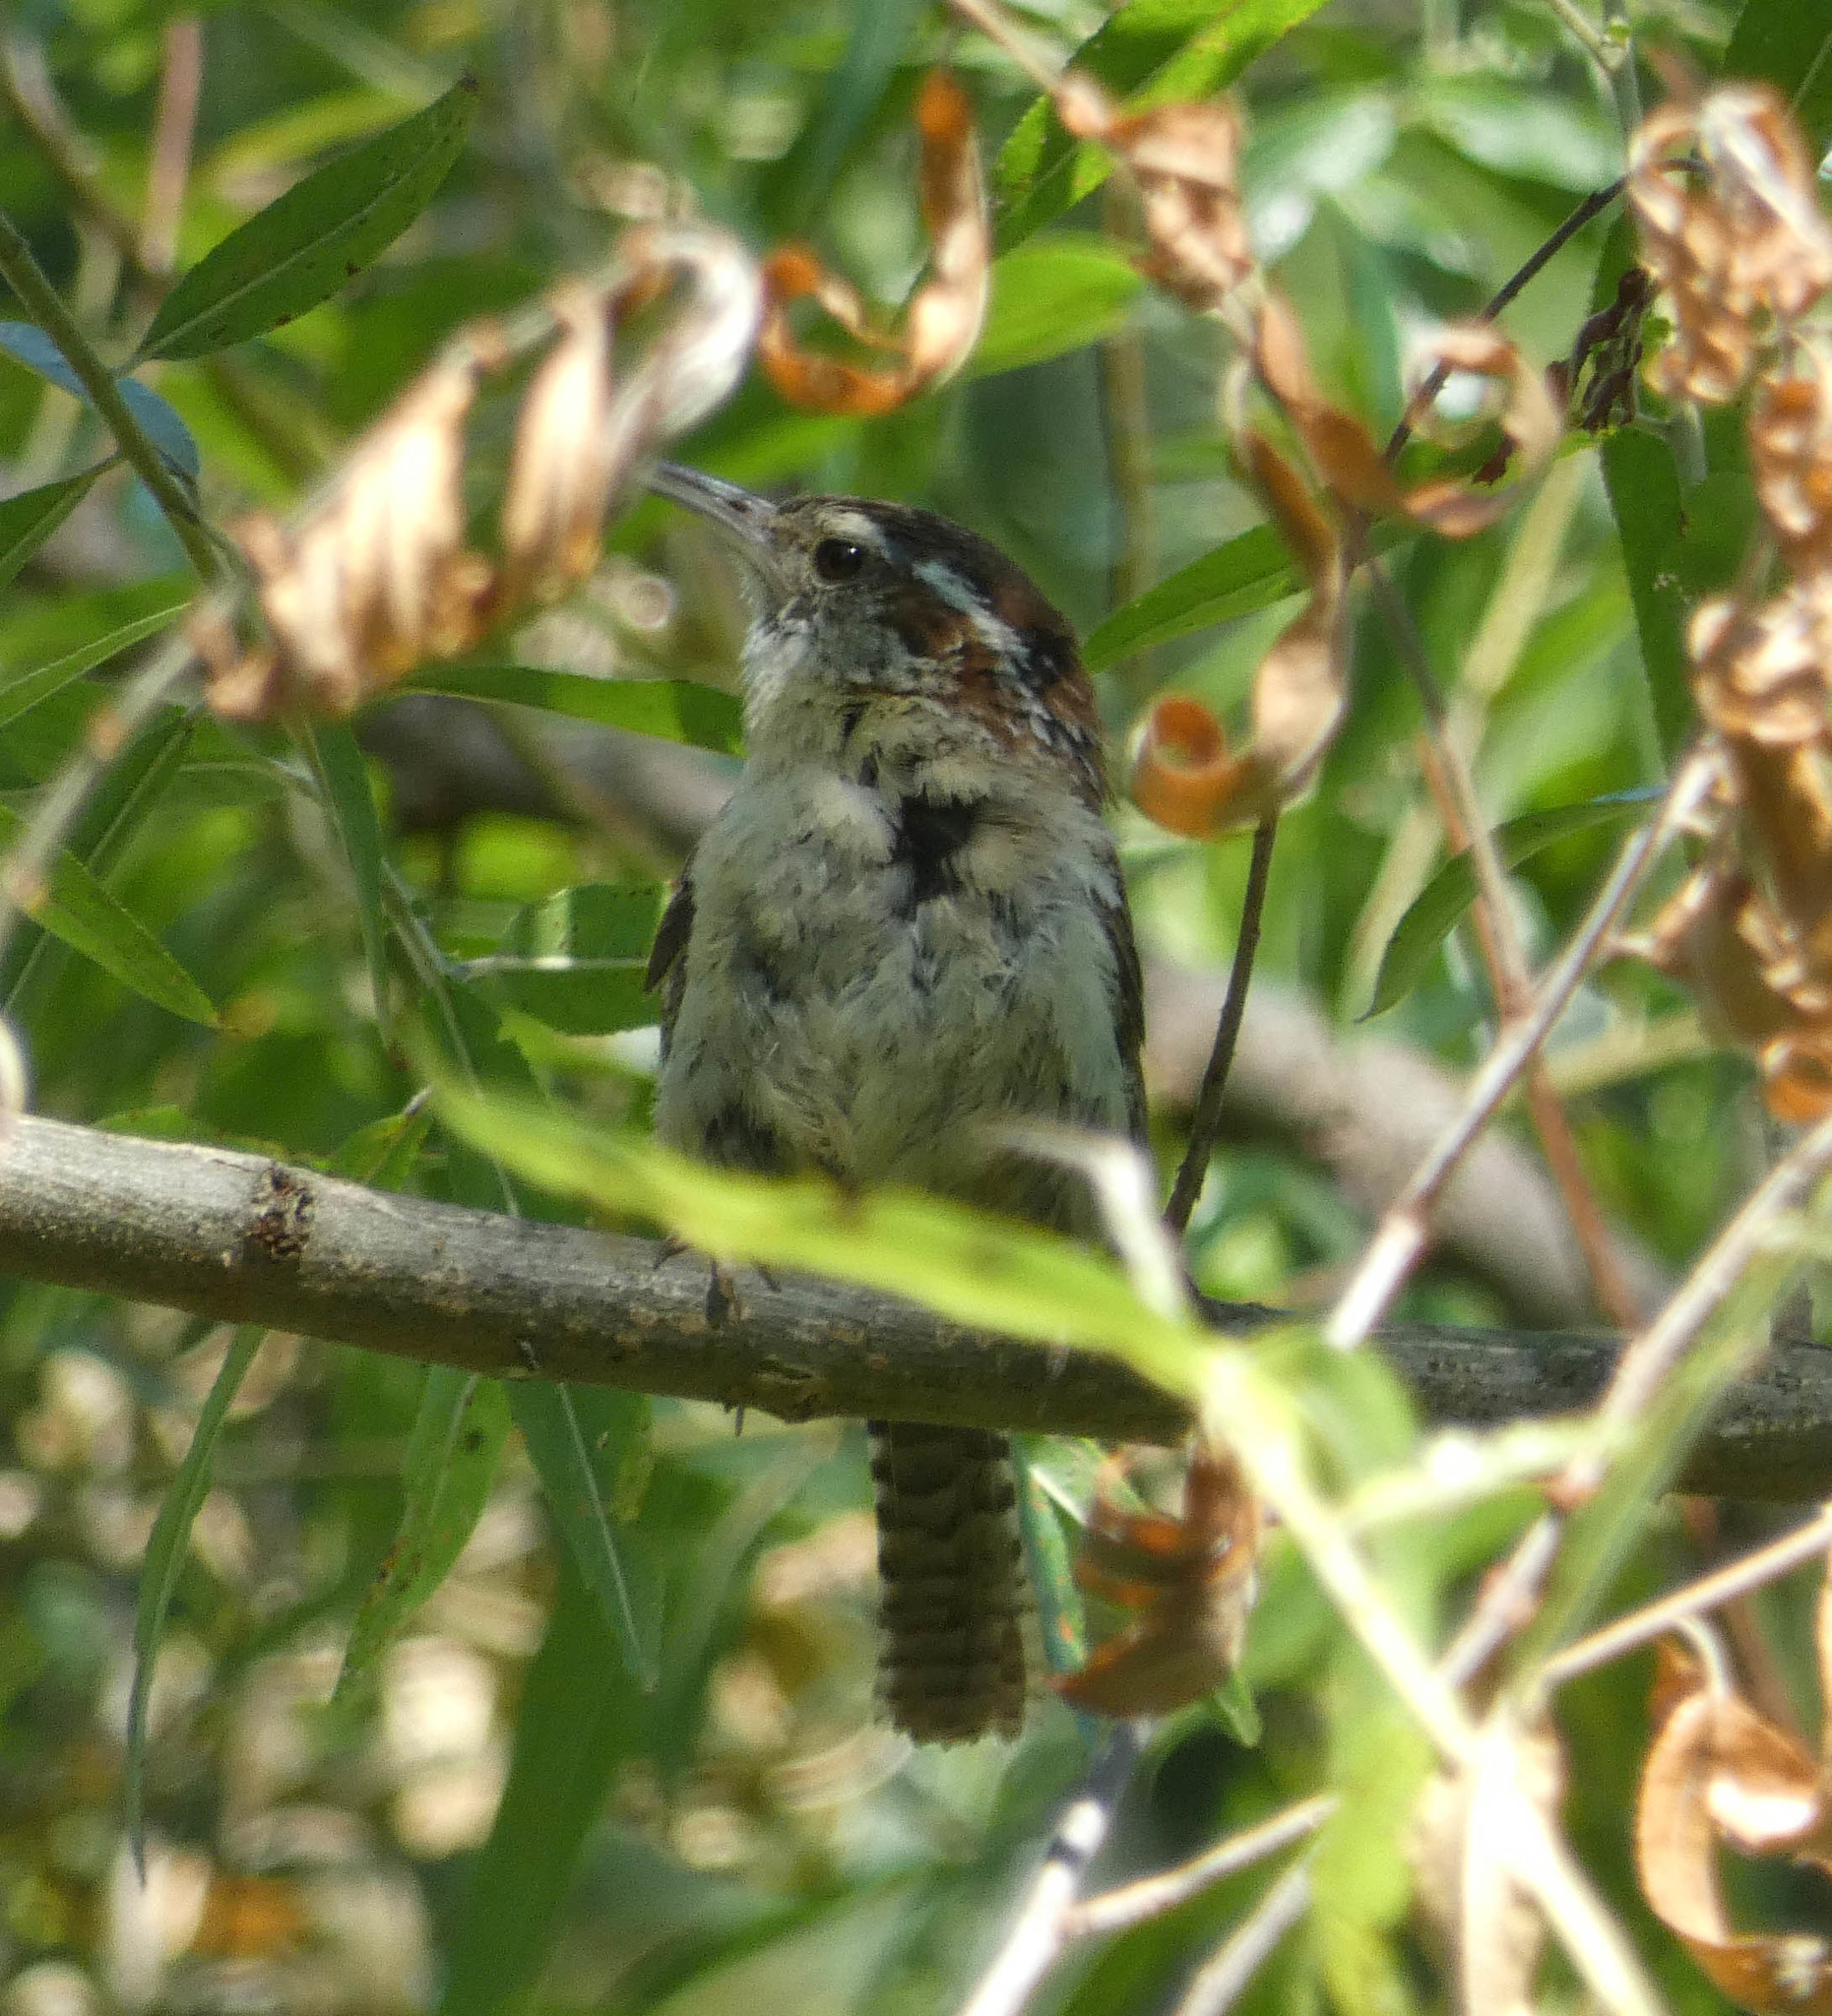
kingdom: Animalia
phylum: Chordata
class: Aves
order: Passeriformes
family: Troglodytidae
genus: Thryothorus
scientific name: Thryothorus ludovicianus
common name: Carolina wren
